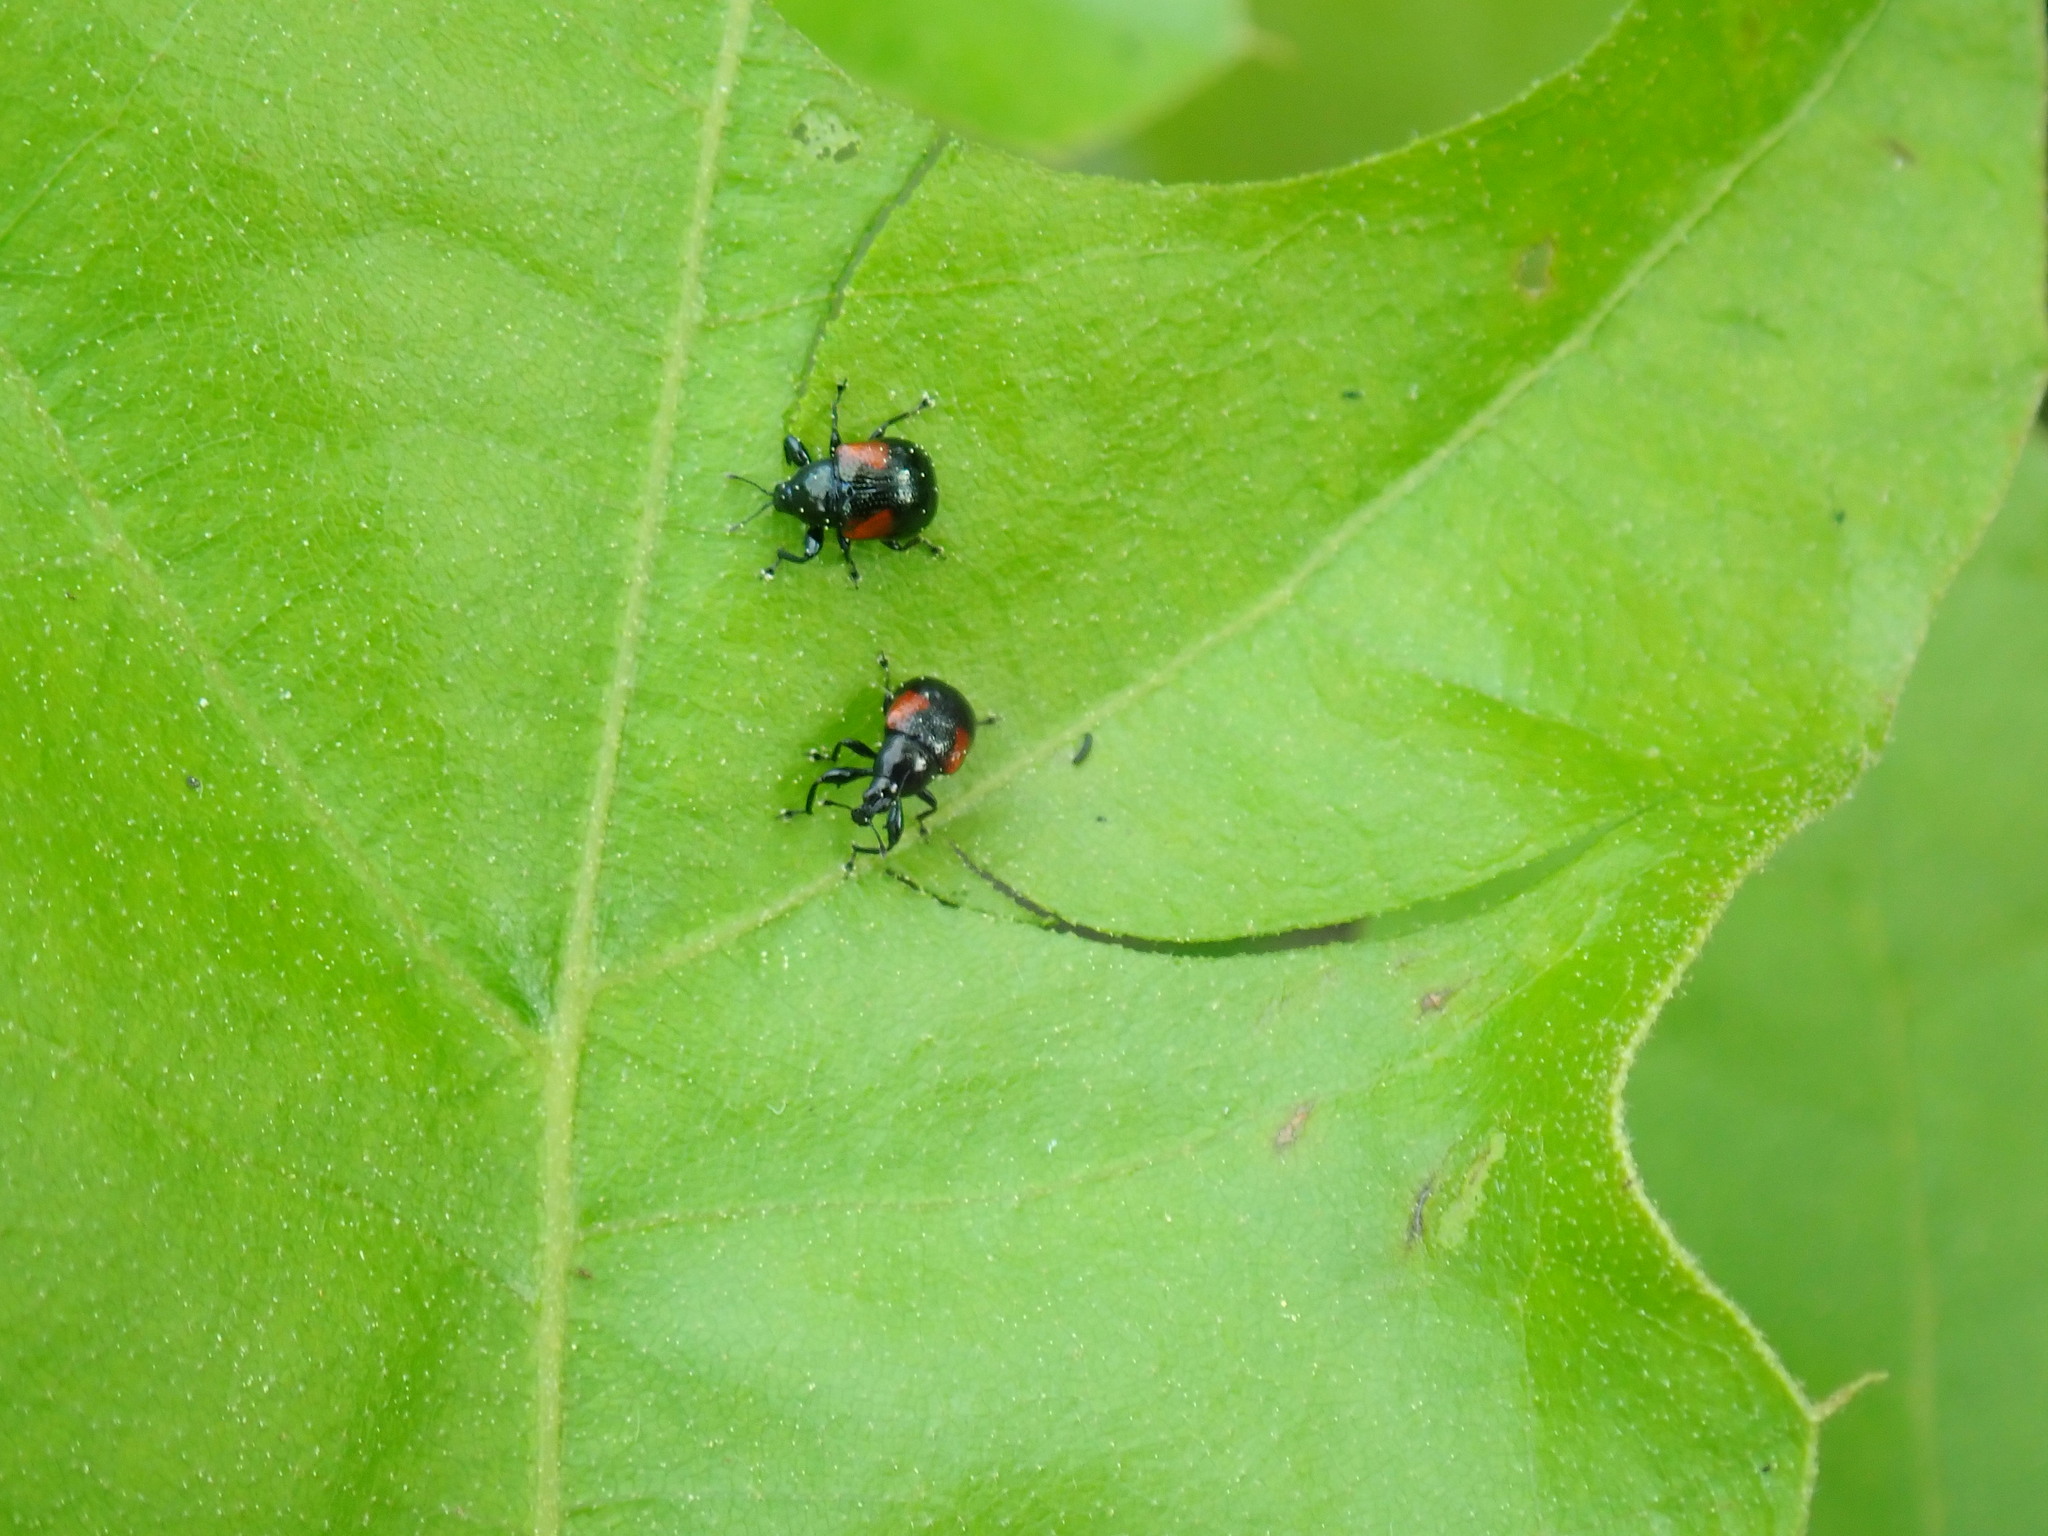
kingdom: Animalia
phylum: Arthropoda
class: Insecta
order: Coleoptera
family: Attelabidae
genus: Attelabus
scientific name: Attelabus bipustulatus
